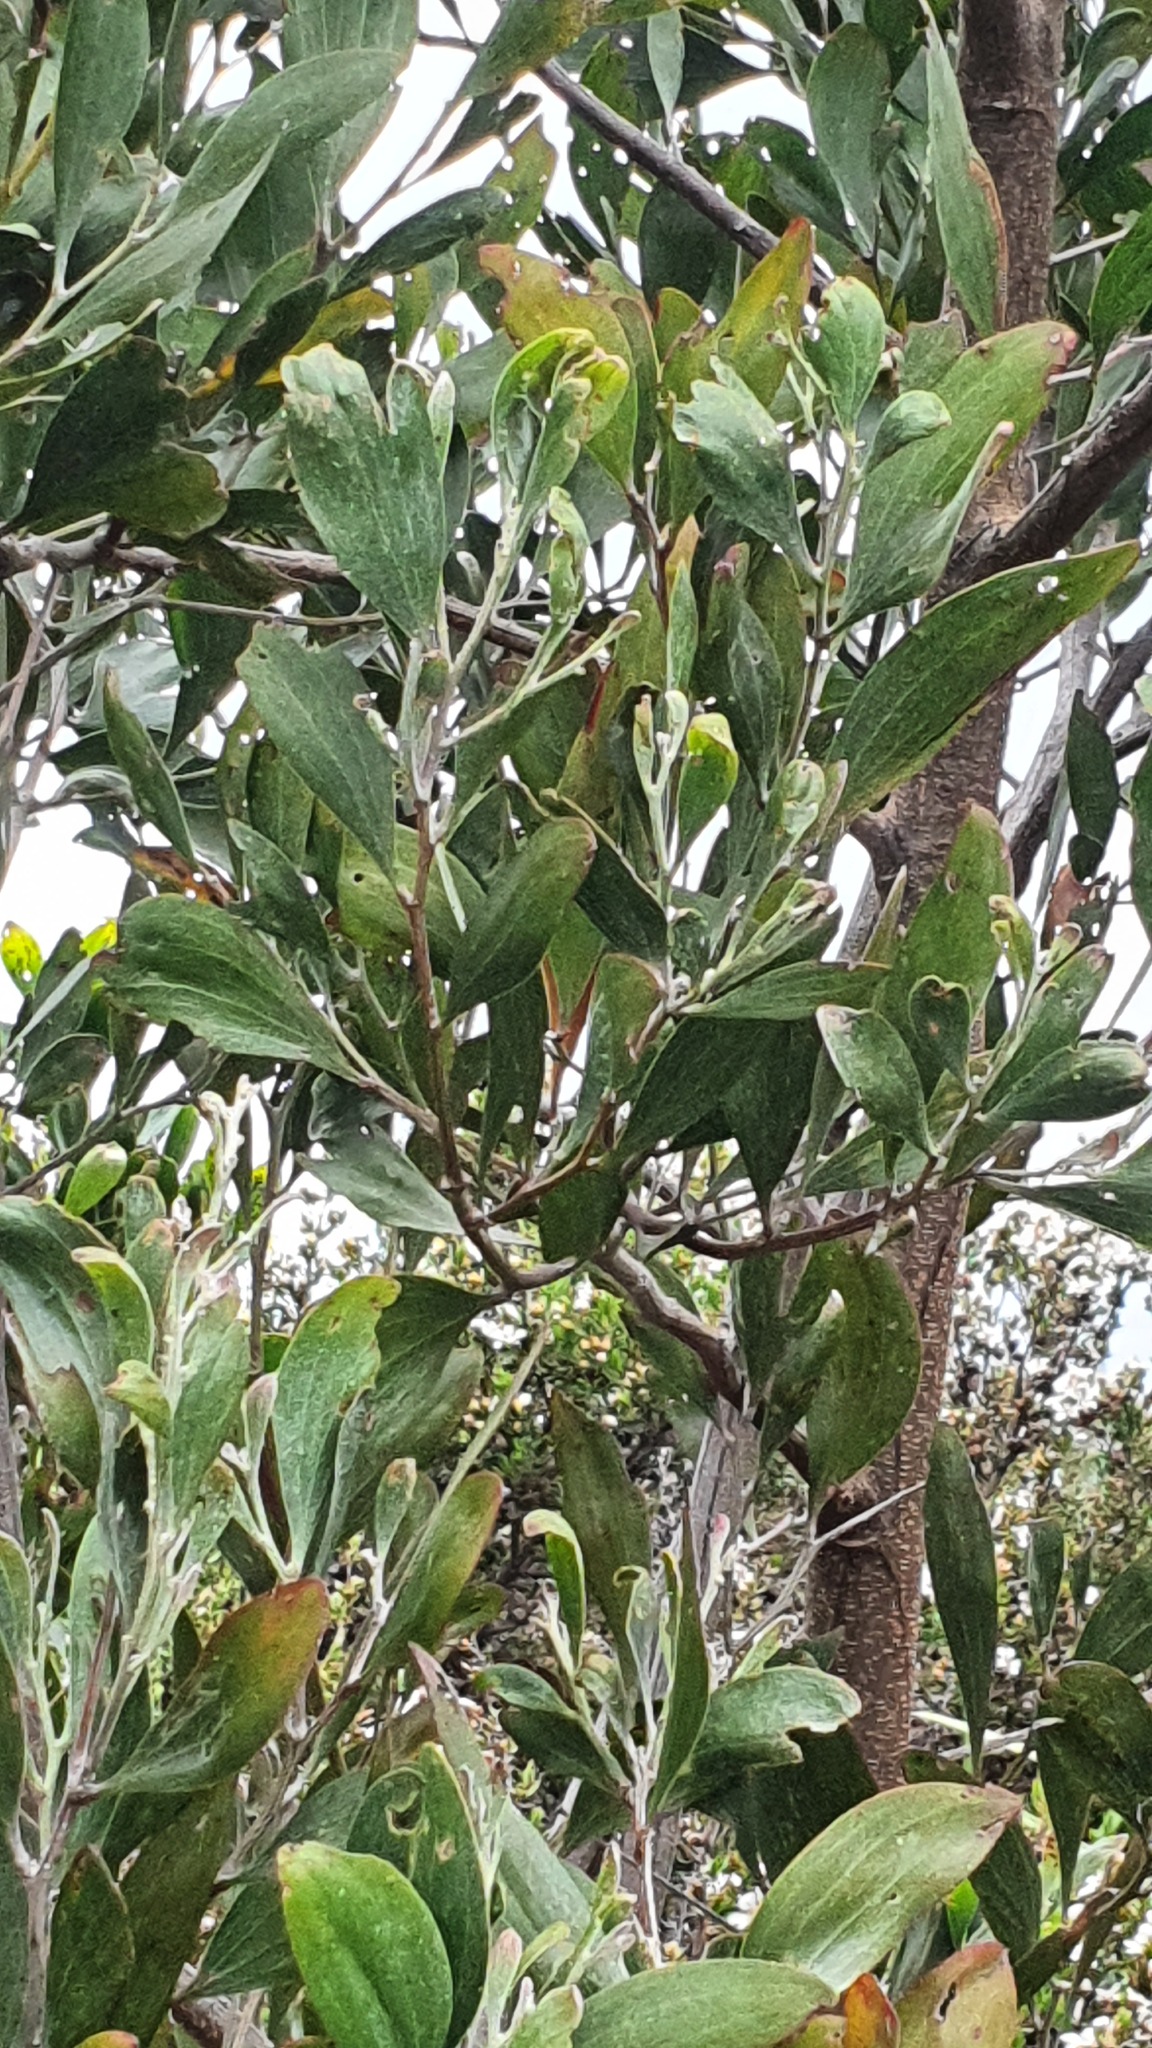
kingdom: Plantae
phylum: Tracheophyta
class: Magnoliopsida
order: Fabales
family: Fabaceae
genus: Acacia
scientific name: Acacia melanoxylon
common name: Blackwood
